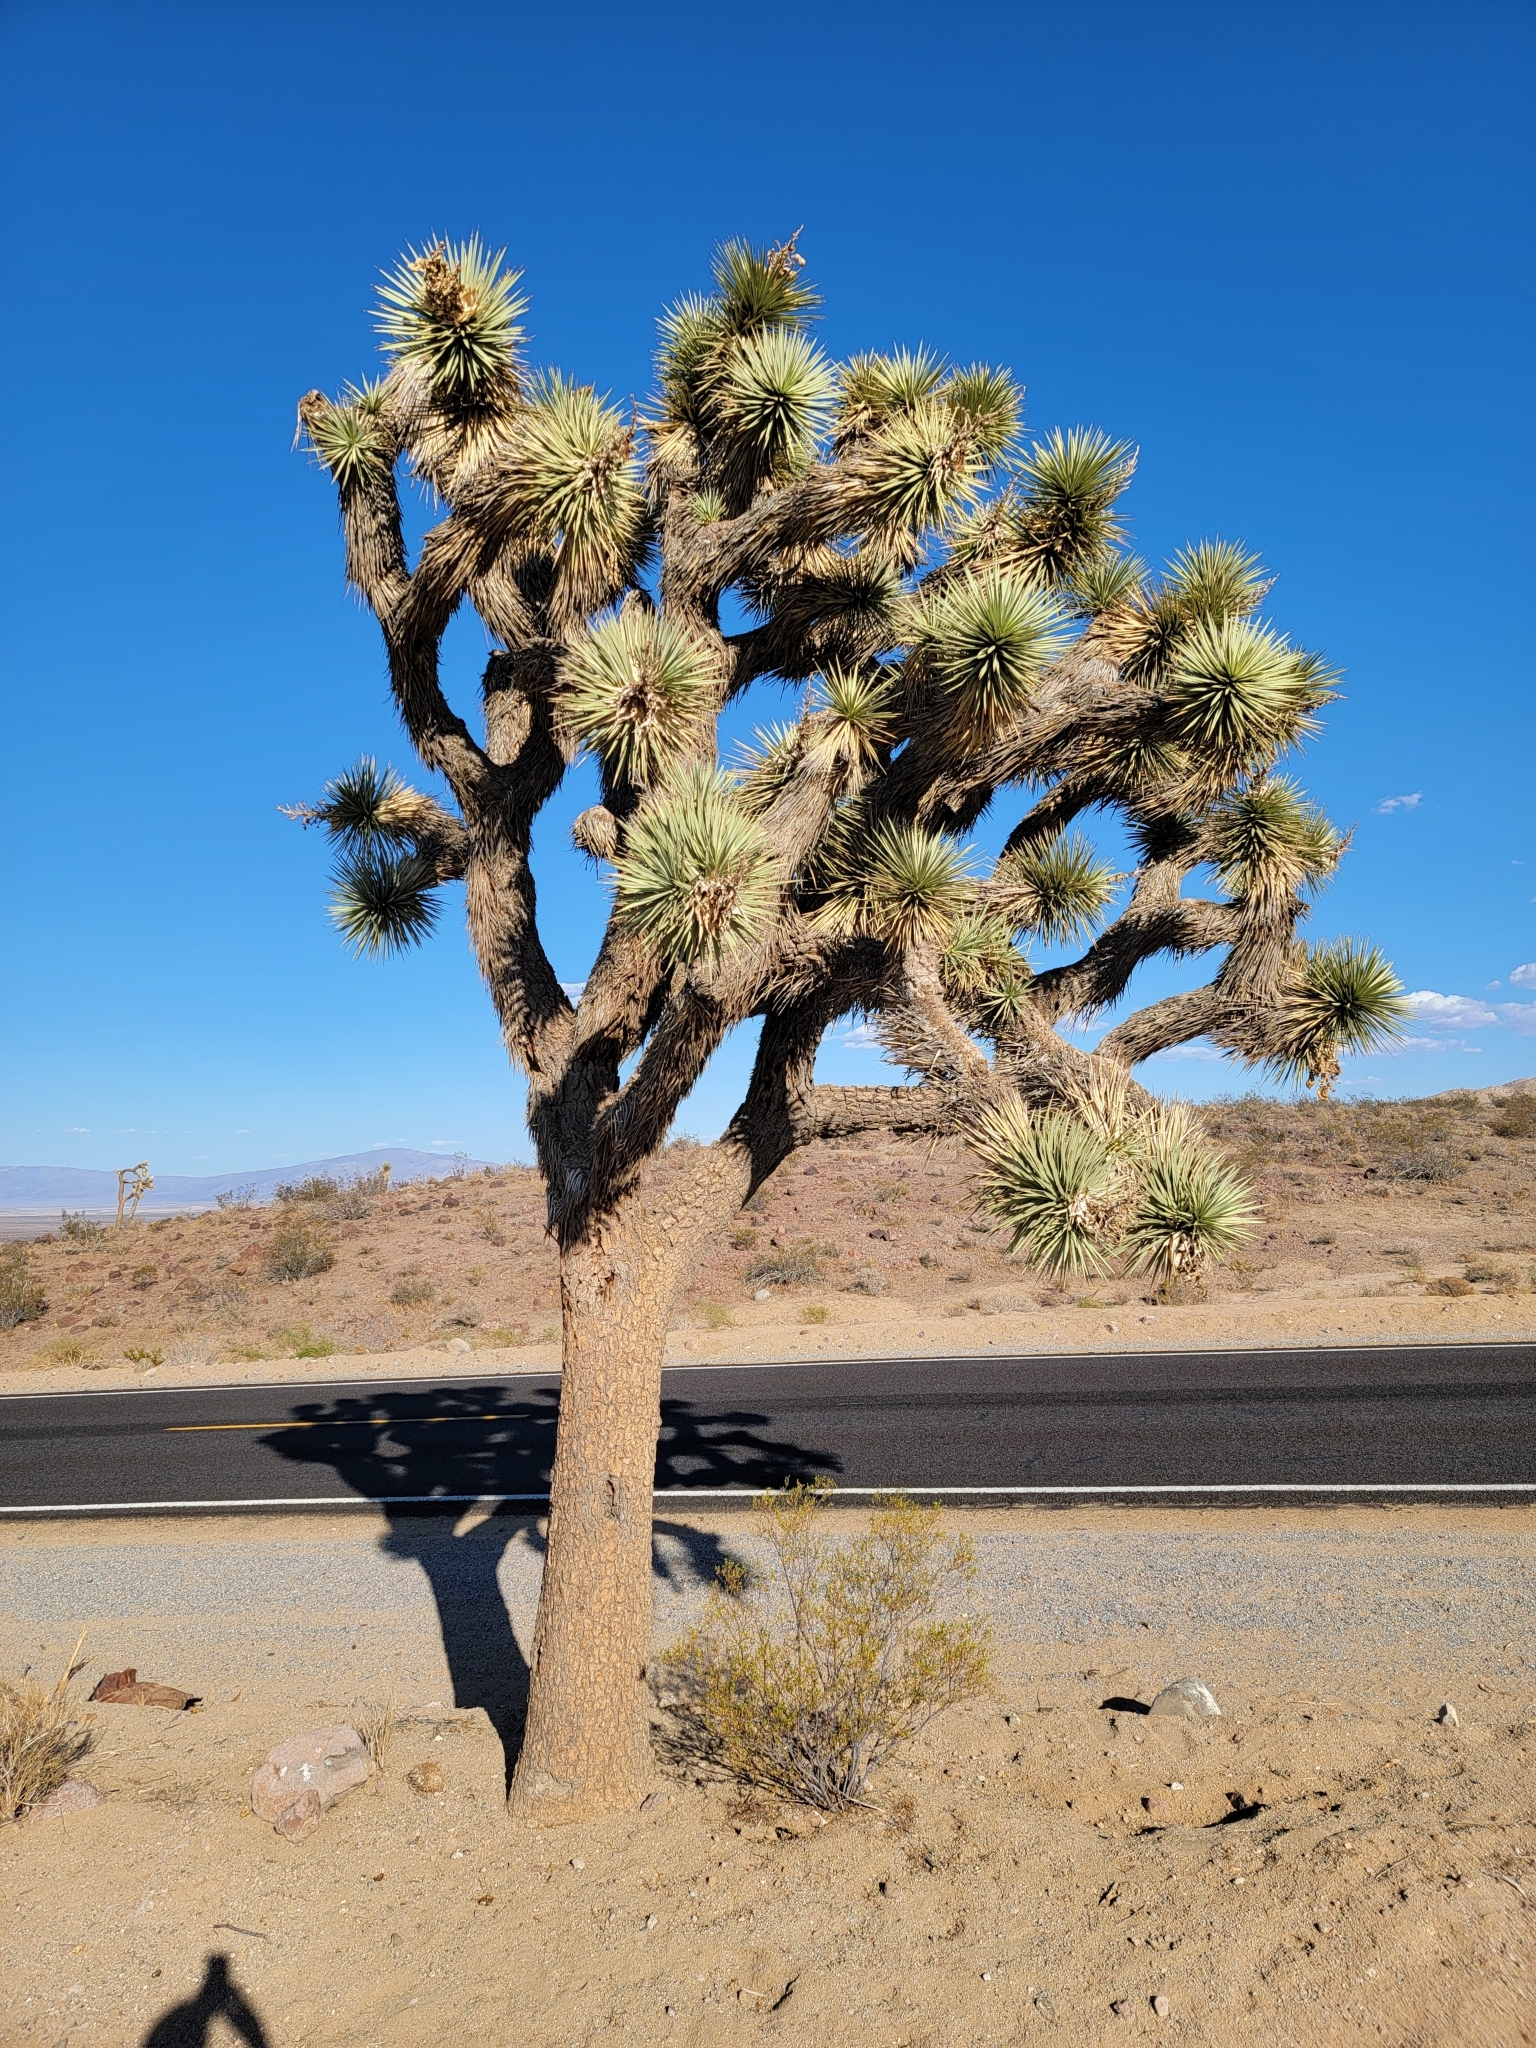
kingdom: Plantae
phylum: Tracheophyta
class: Liliopsida
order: Asparagales
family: Asparagaceae
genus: Yucca
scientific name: Yucca brevifolia
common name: Joshua tree
